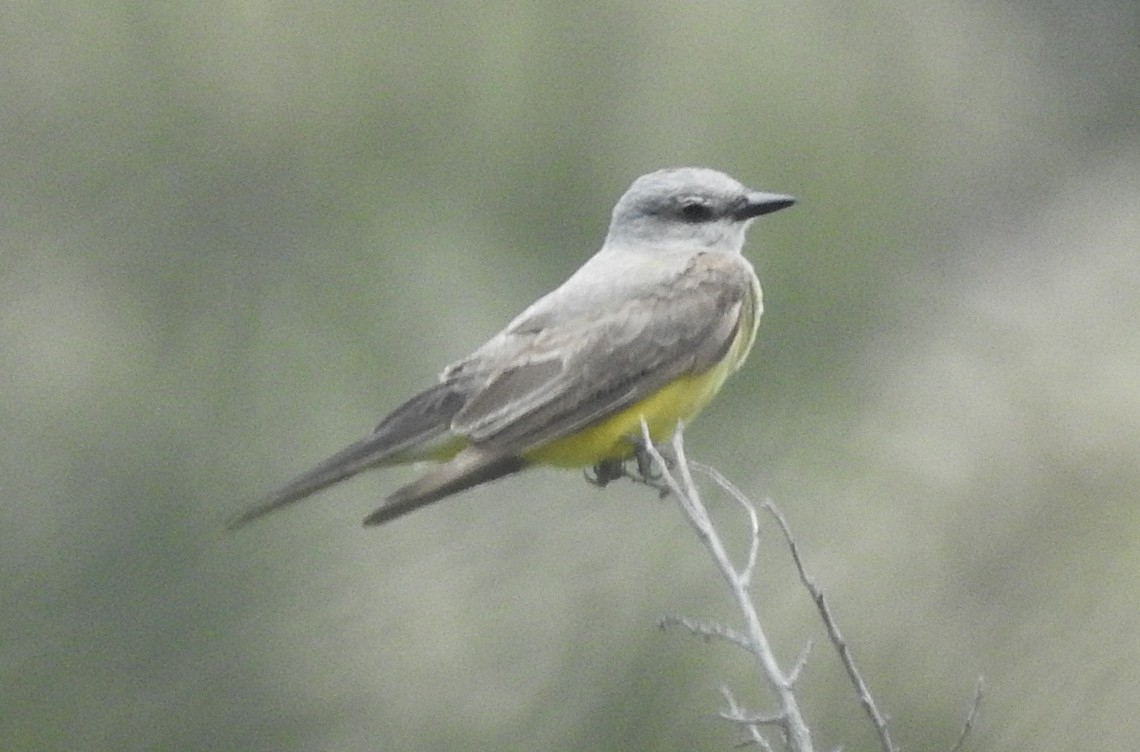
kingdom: Animalia
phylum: Chordata
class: Aves
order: Passeriformes
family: Tyrannidae
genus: Tyrannus
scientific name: Tyrannus verticalis
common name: Western kingbird
